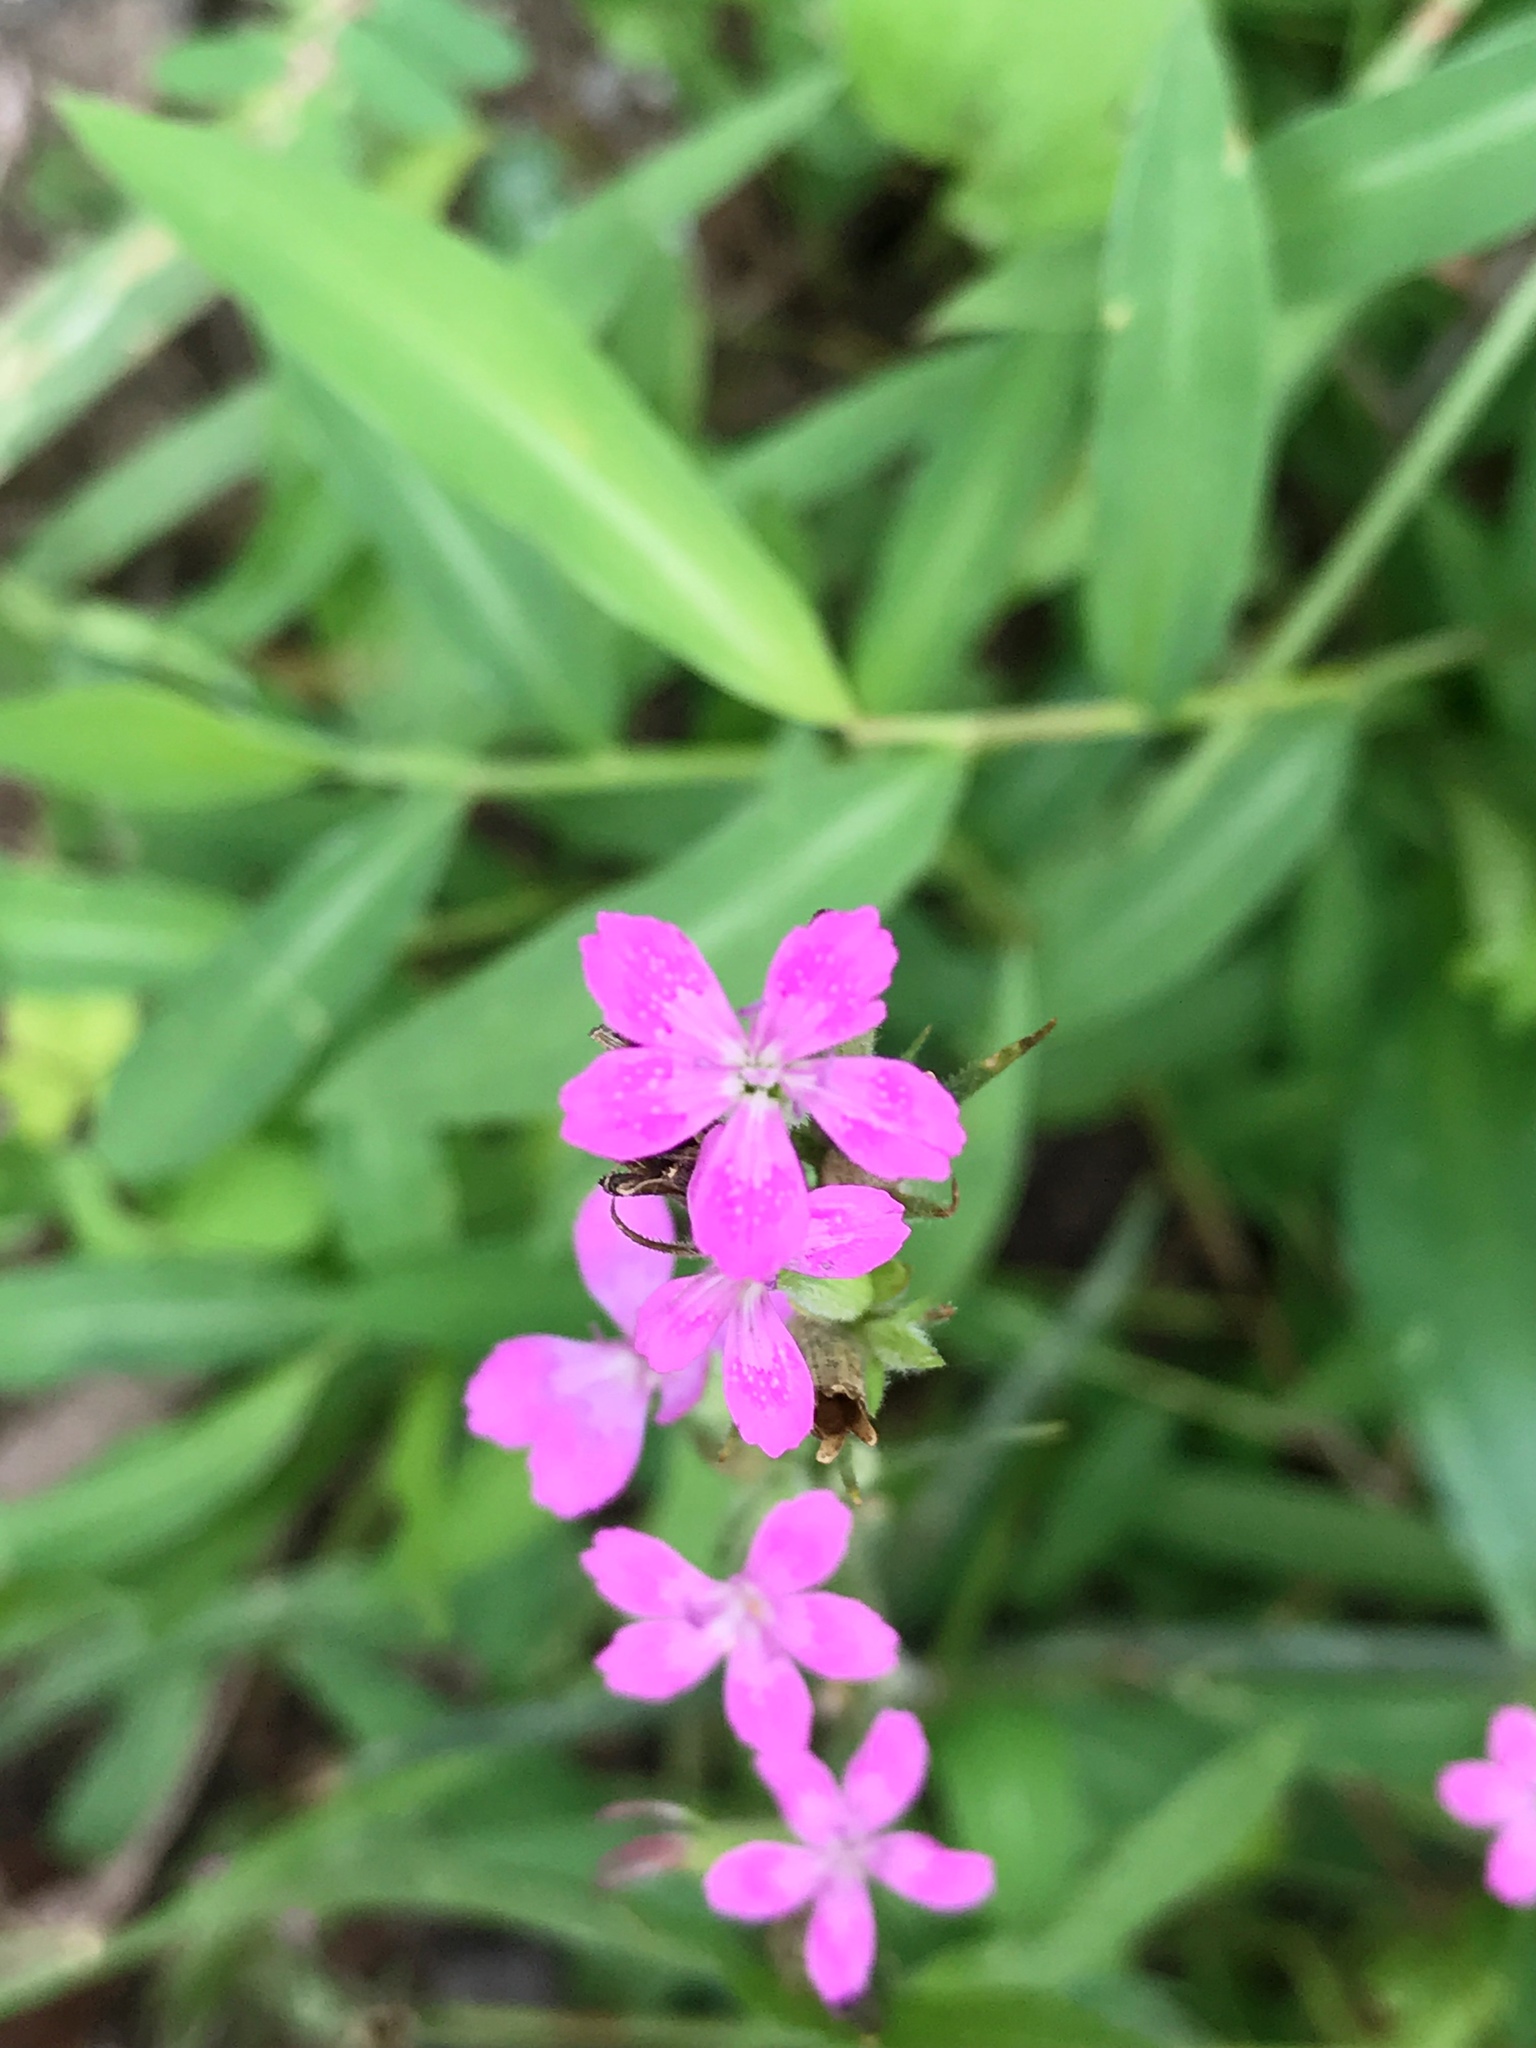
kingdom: Plantae
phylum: Tracheophyta
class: Magnoliopsida
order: Caryophyllales
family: Caryophyllaceae
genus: Dianthus
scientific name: Dianthus armeria
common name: Deptford pink
